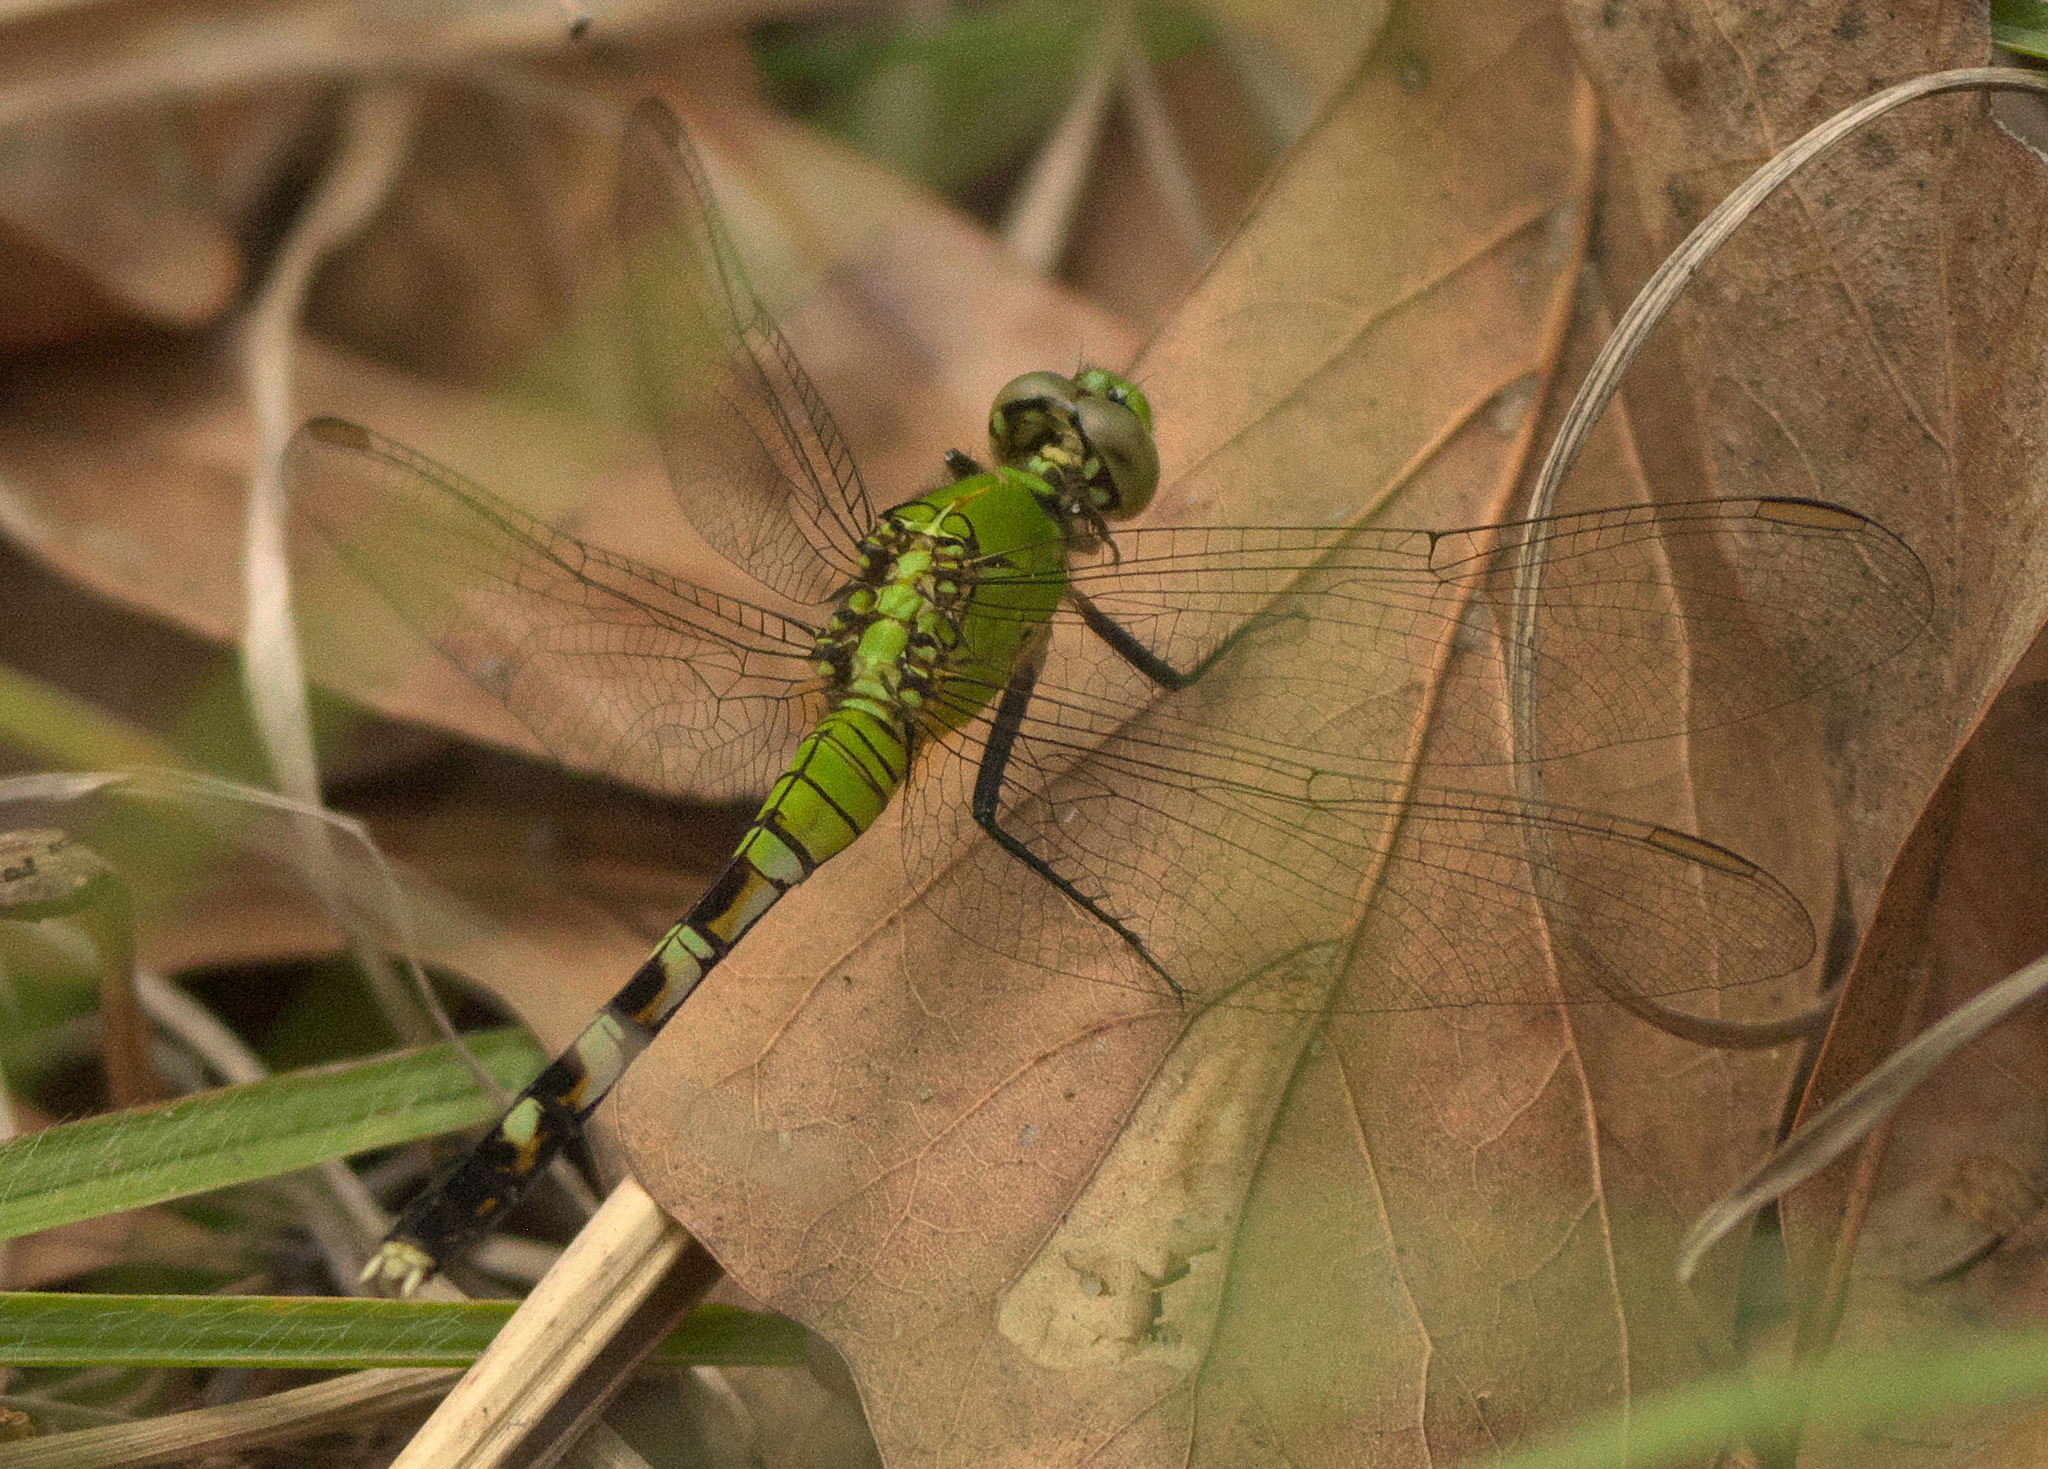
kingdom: Animalia
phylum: Arthropoda
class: Insecta
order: Odonata
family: Libellulidae
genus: Erythemis
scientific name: Erythemis simplicicollis
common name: Eastern pondhawk
